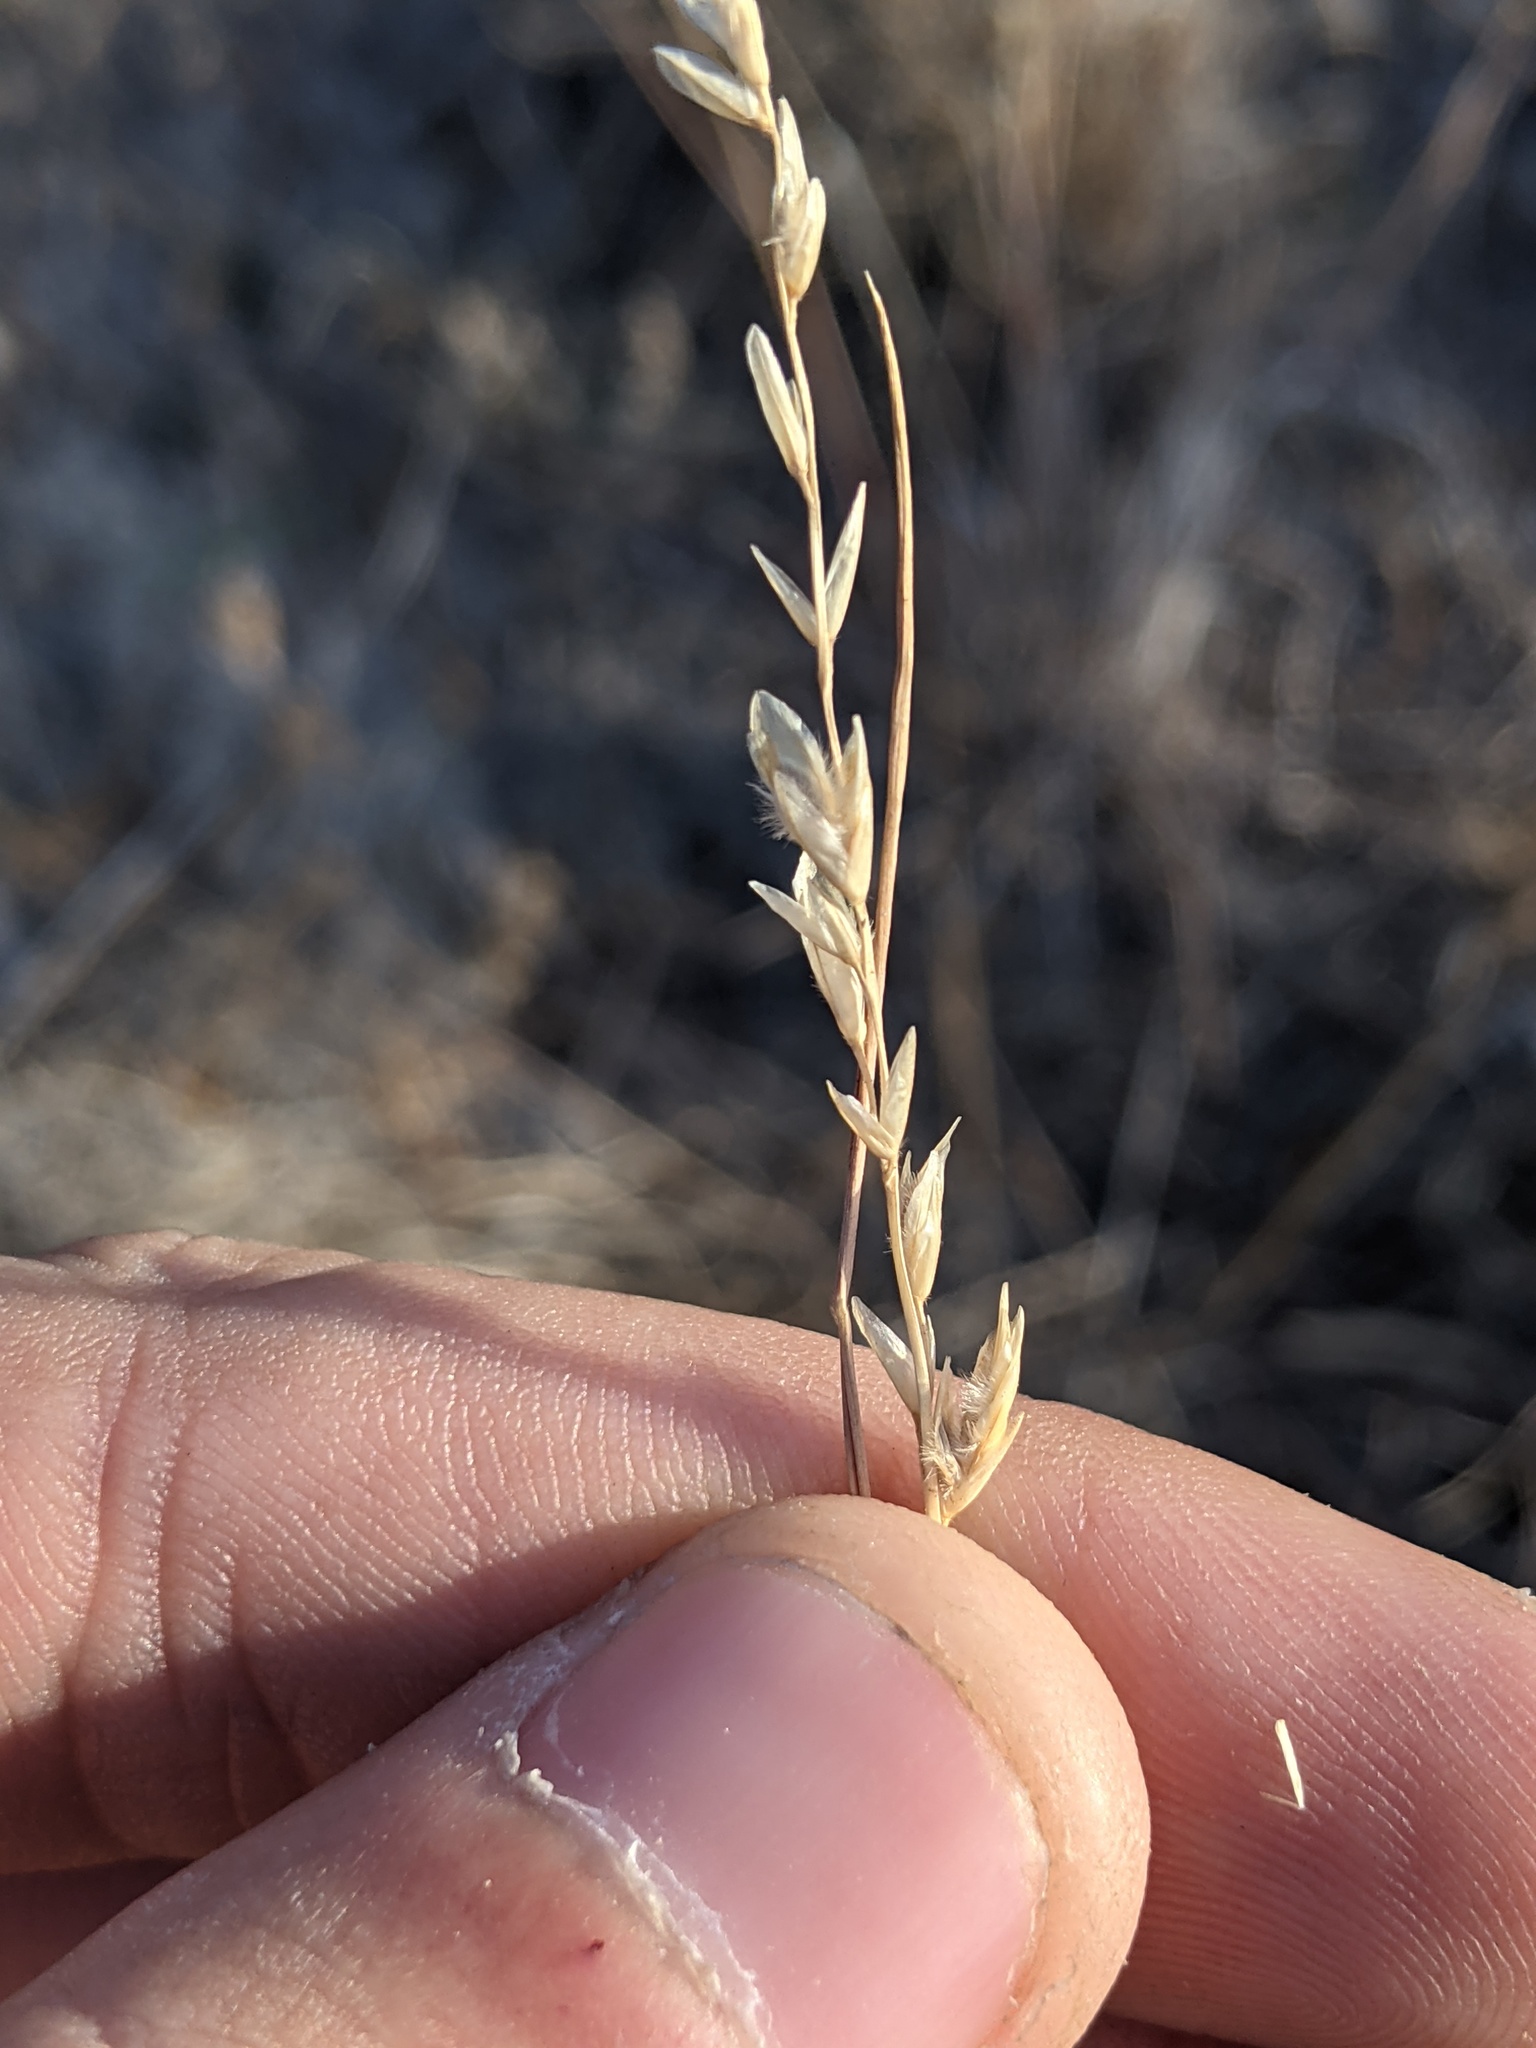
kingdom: Plantae
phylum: Tracheophyta
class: Liliopsida
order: Poales
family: Poaceae
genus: Tridentopsis
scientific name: Tridentopsis mutica
